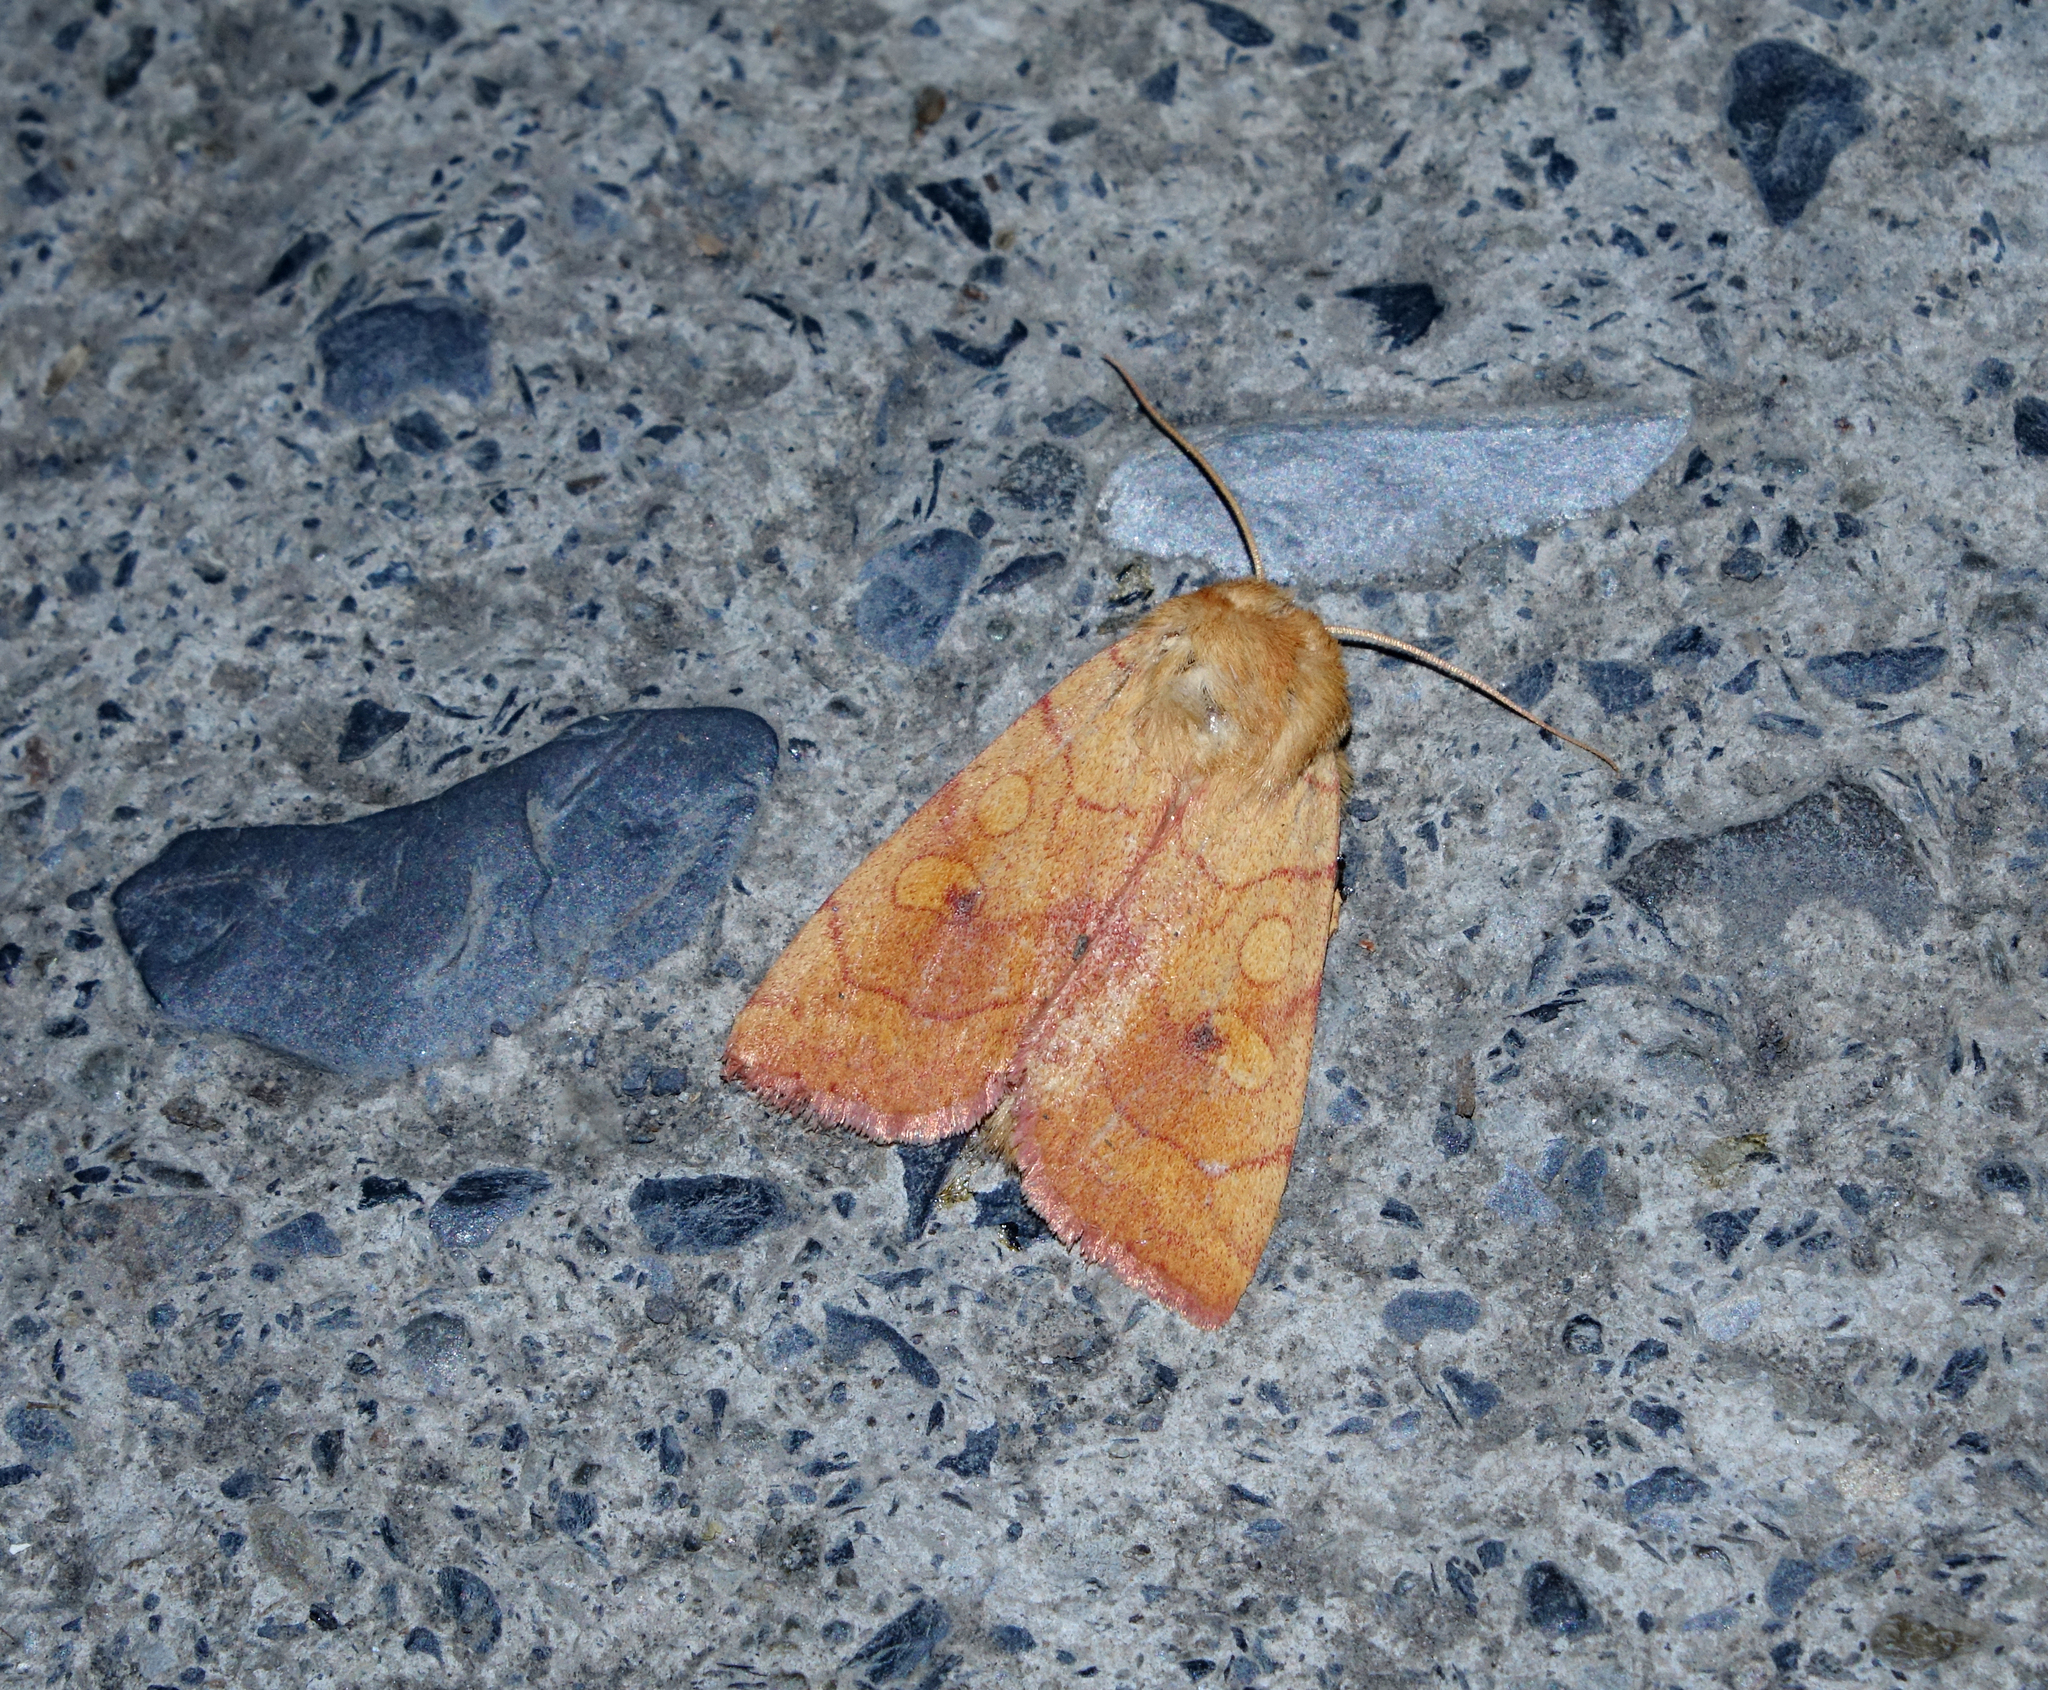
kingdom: Animalia
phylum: Arthropoda
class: Insecta
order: Lepidoptera
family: Noctuidae
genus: Enargia
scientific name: Enargia paleacea
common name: Angle-striped sallow
